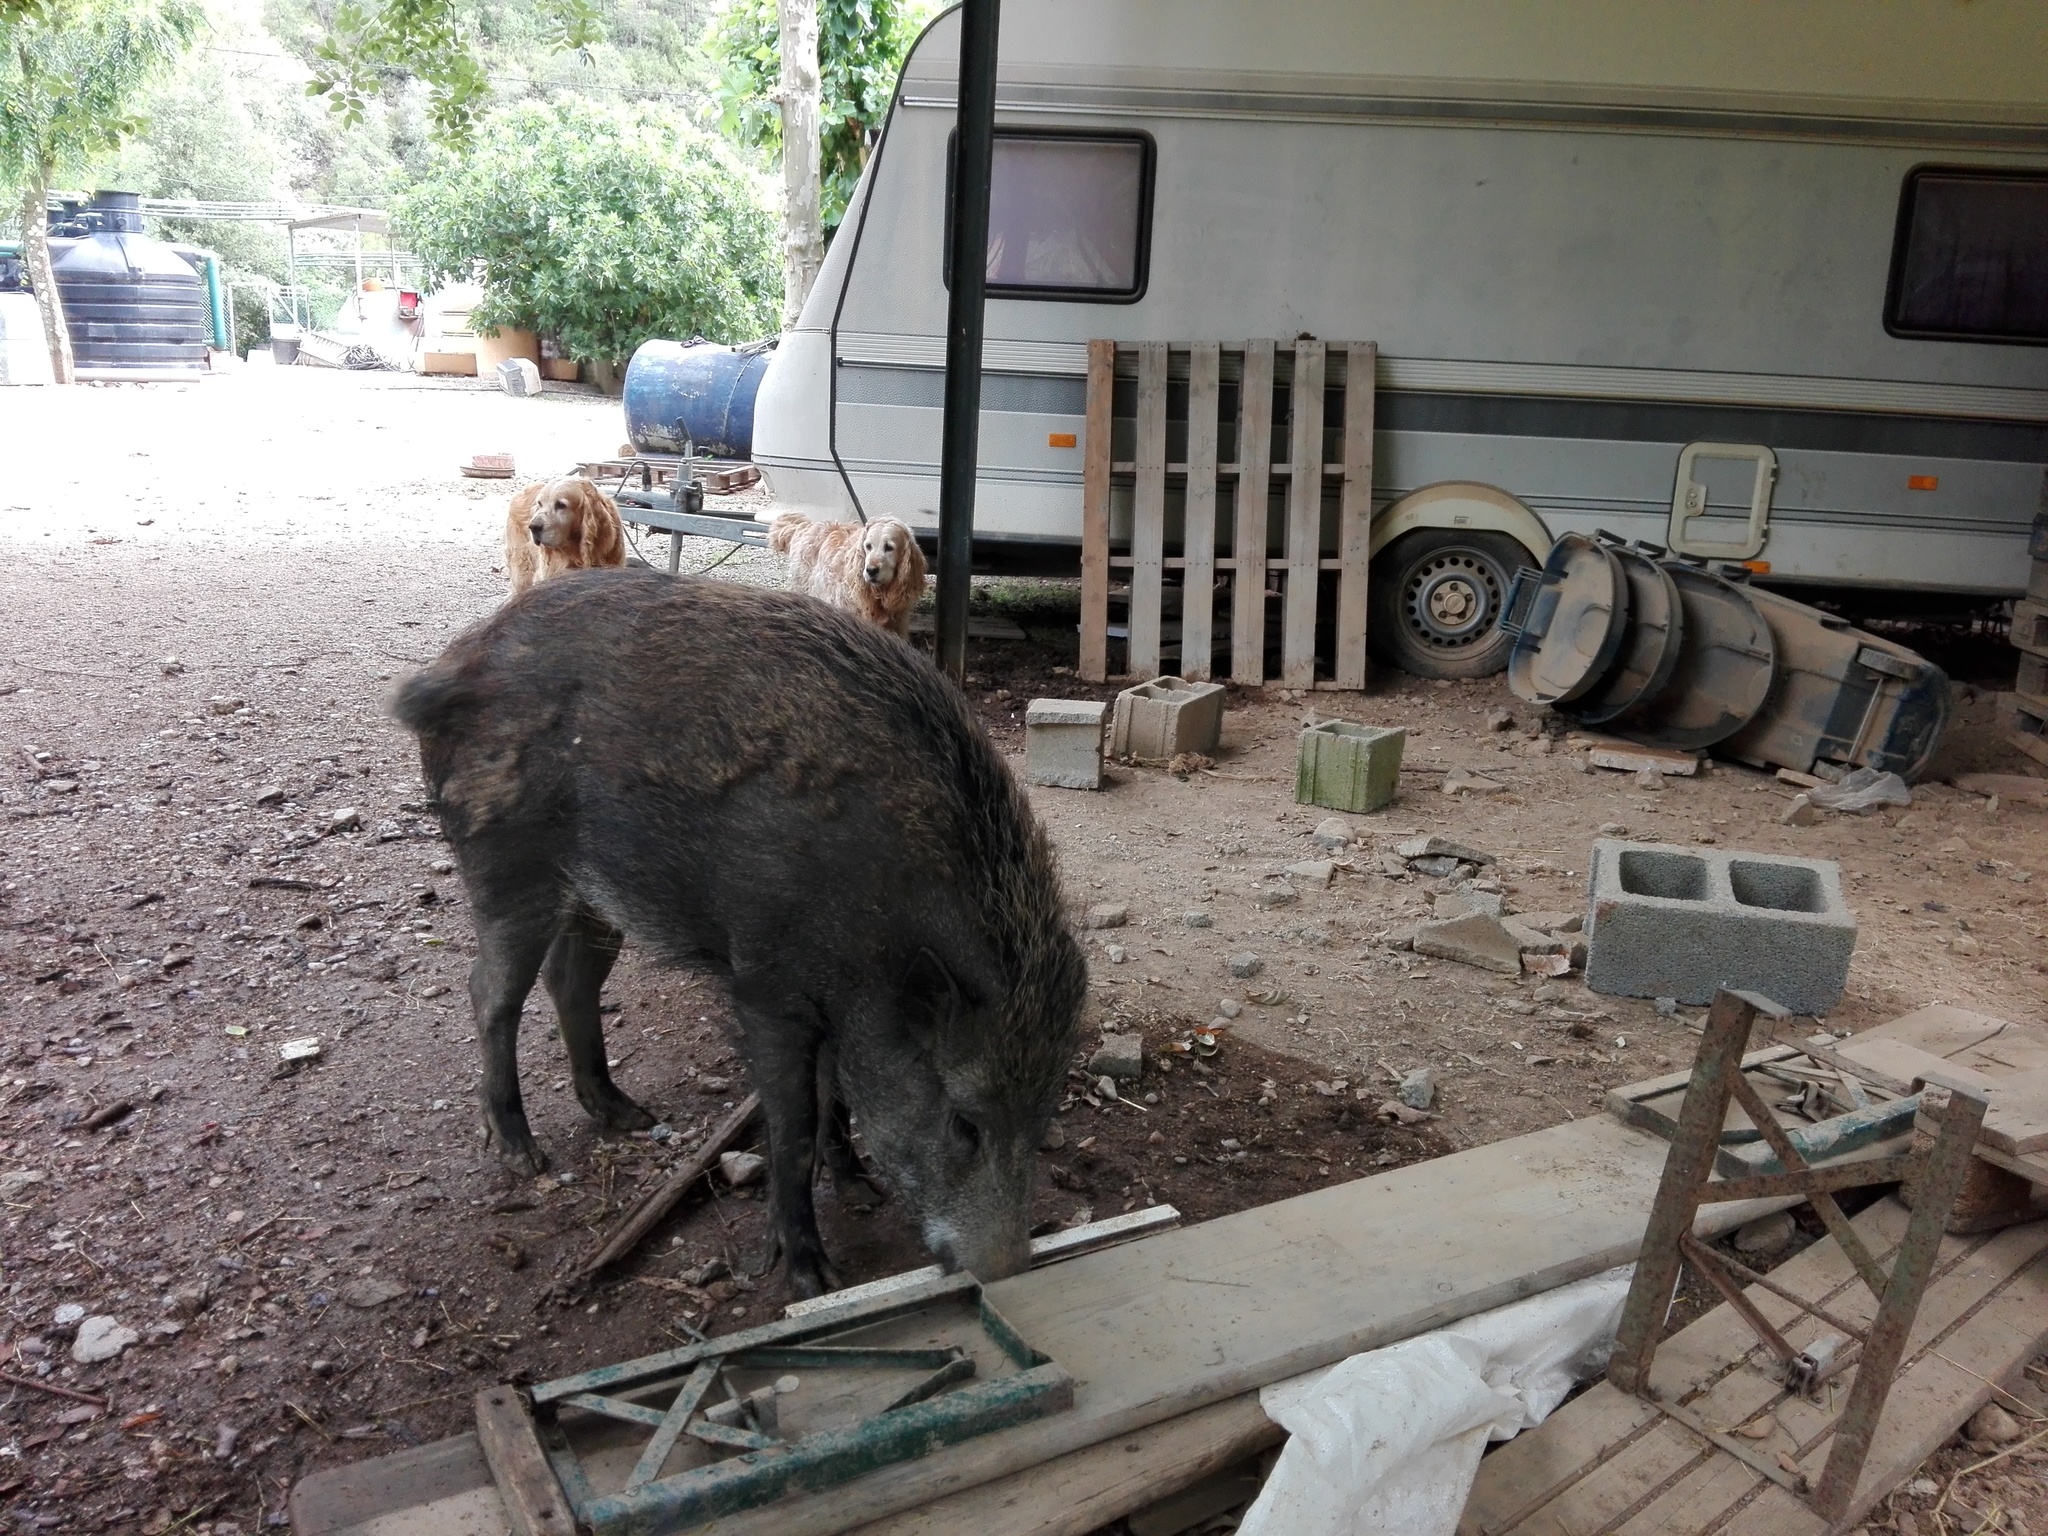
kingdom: Animalia
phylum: Chordata
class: Mammalia
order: Artiodactyla
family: Suidae
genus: Sus
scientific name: Sus scrofa
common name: Wild boar
